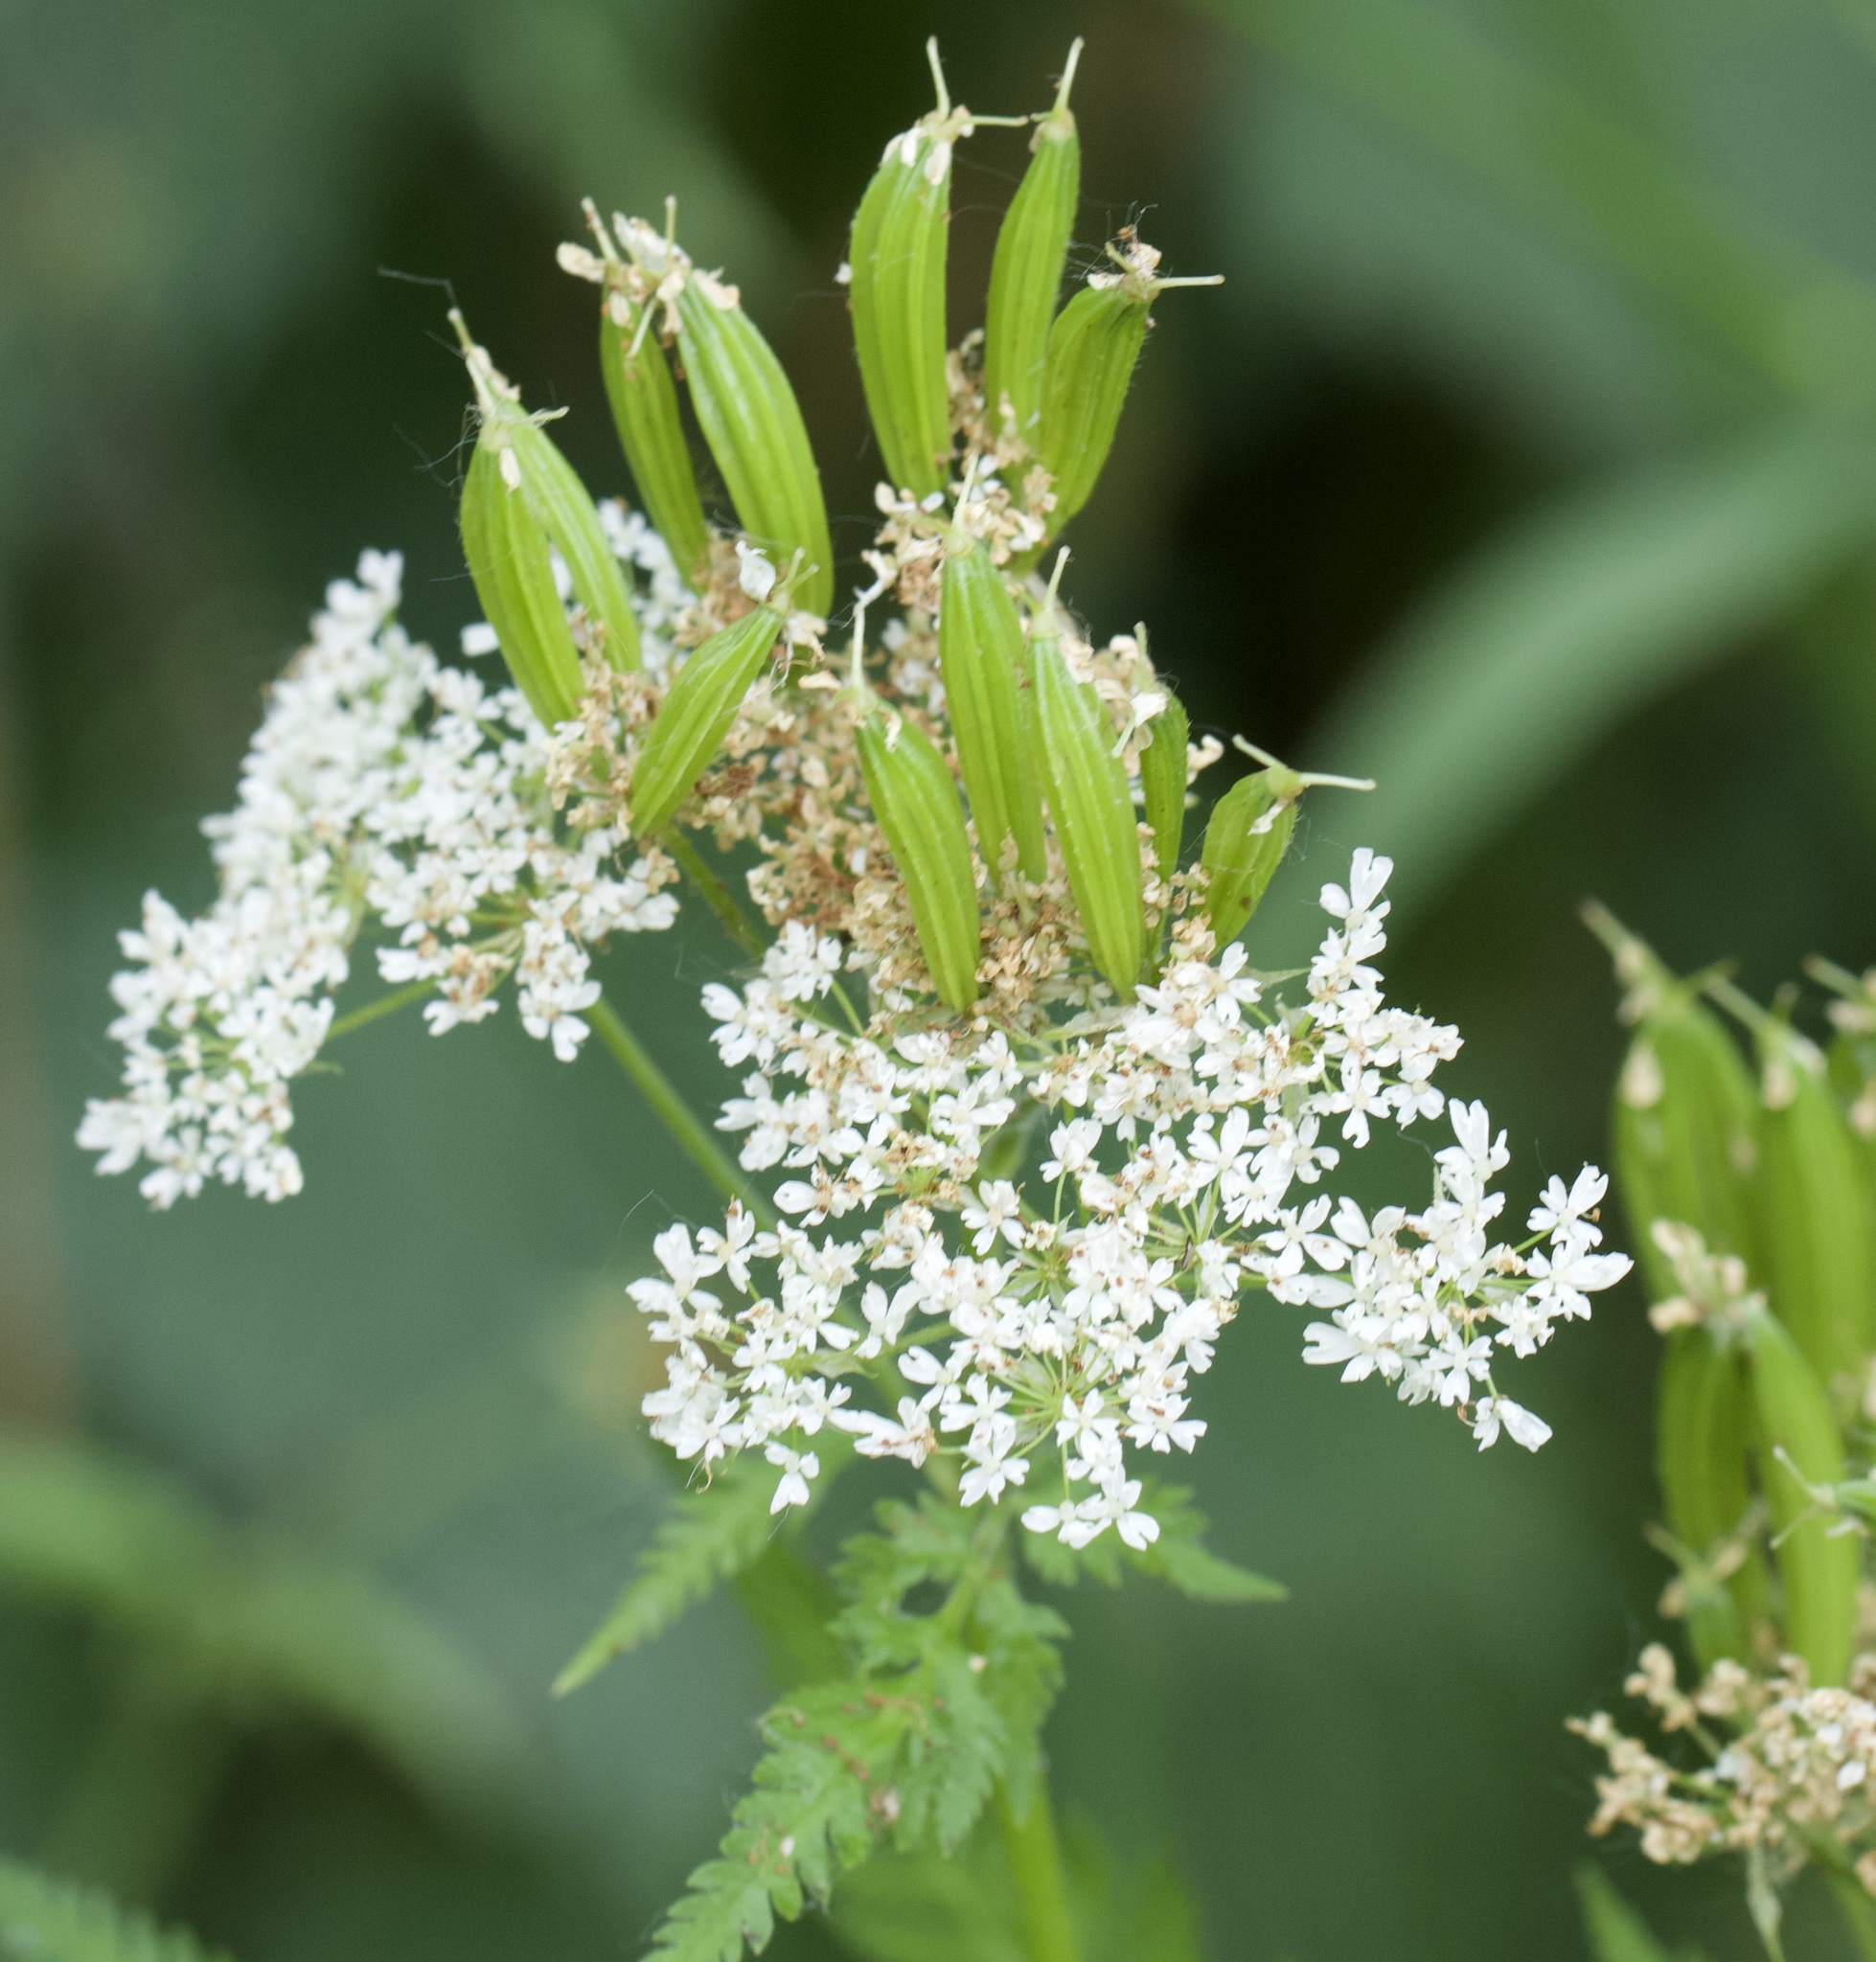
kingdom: Plantae
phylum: Tracheophyta
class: Magnoliopsida
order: Apiales
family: Apiaceae
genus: Myrrhis
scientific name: Myrrhis odorata
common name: Sweet cicely
